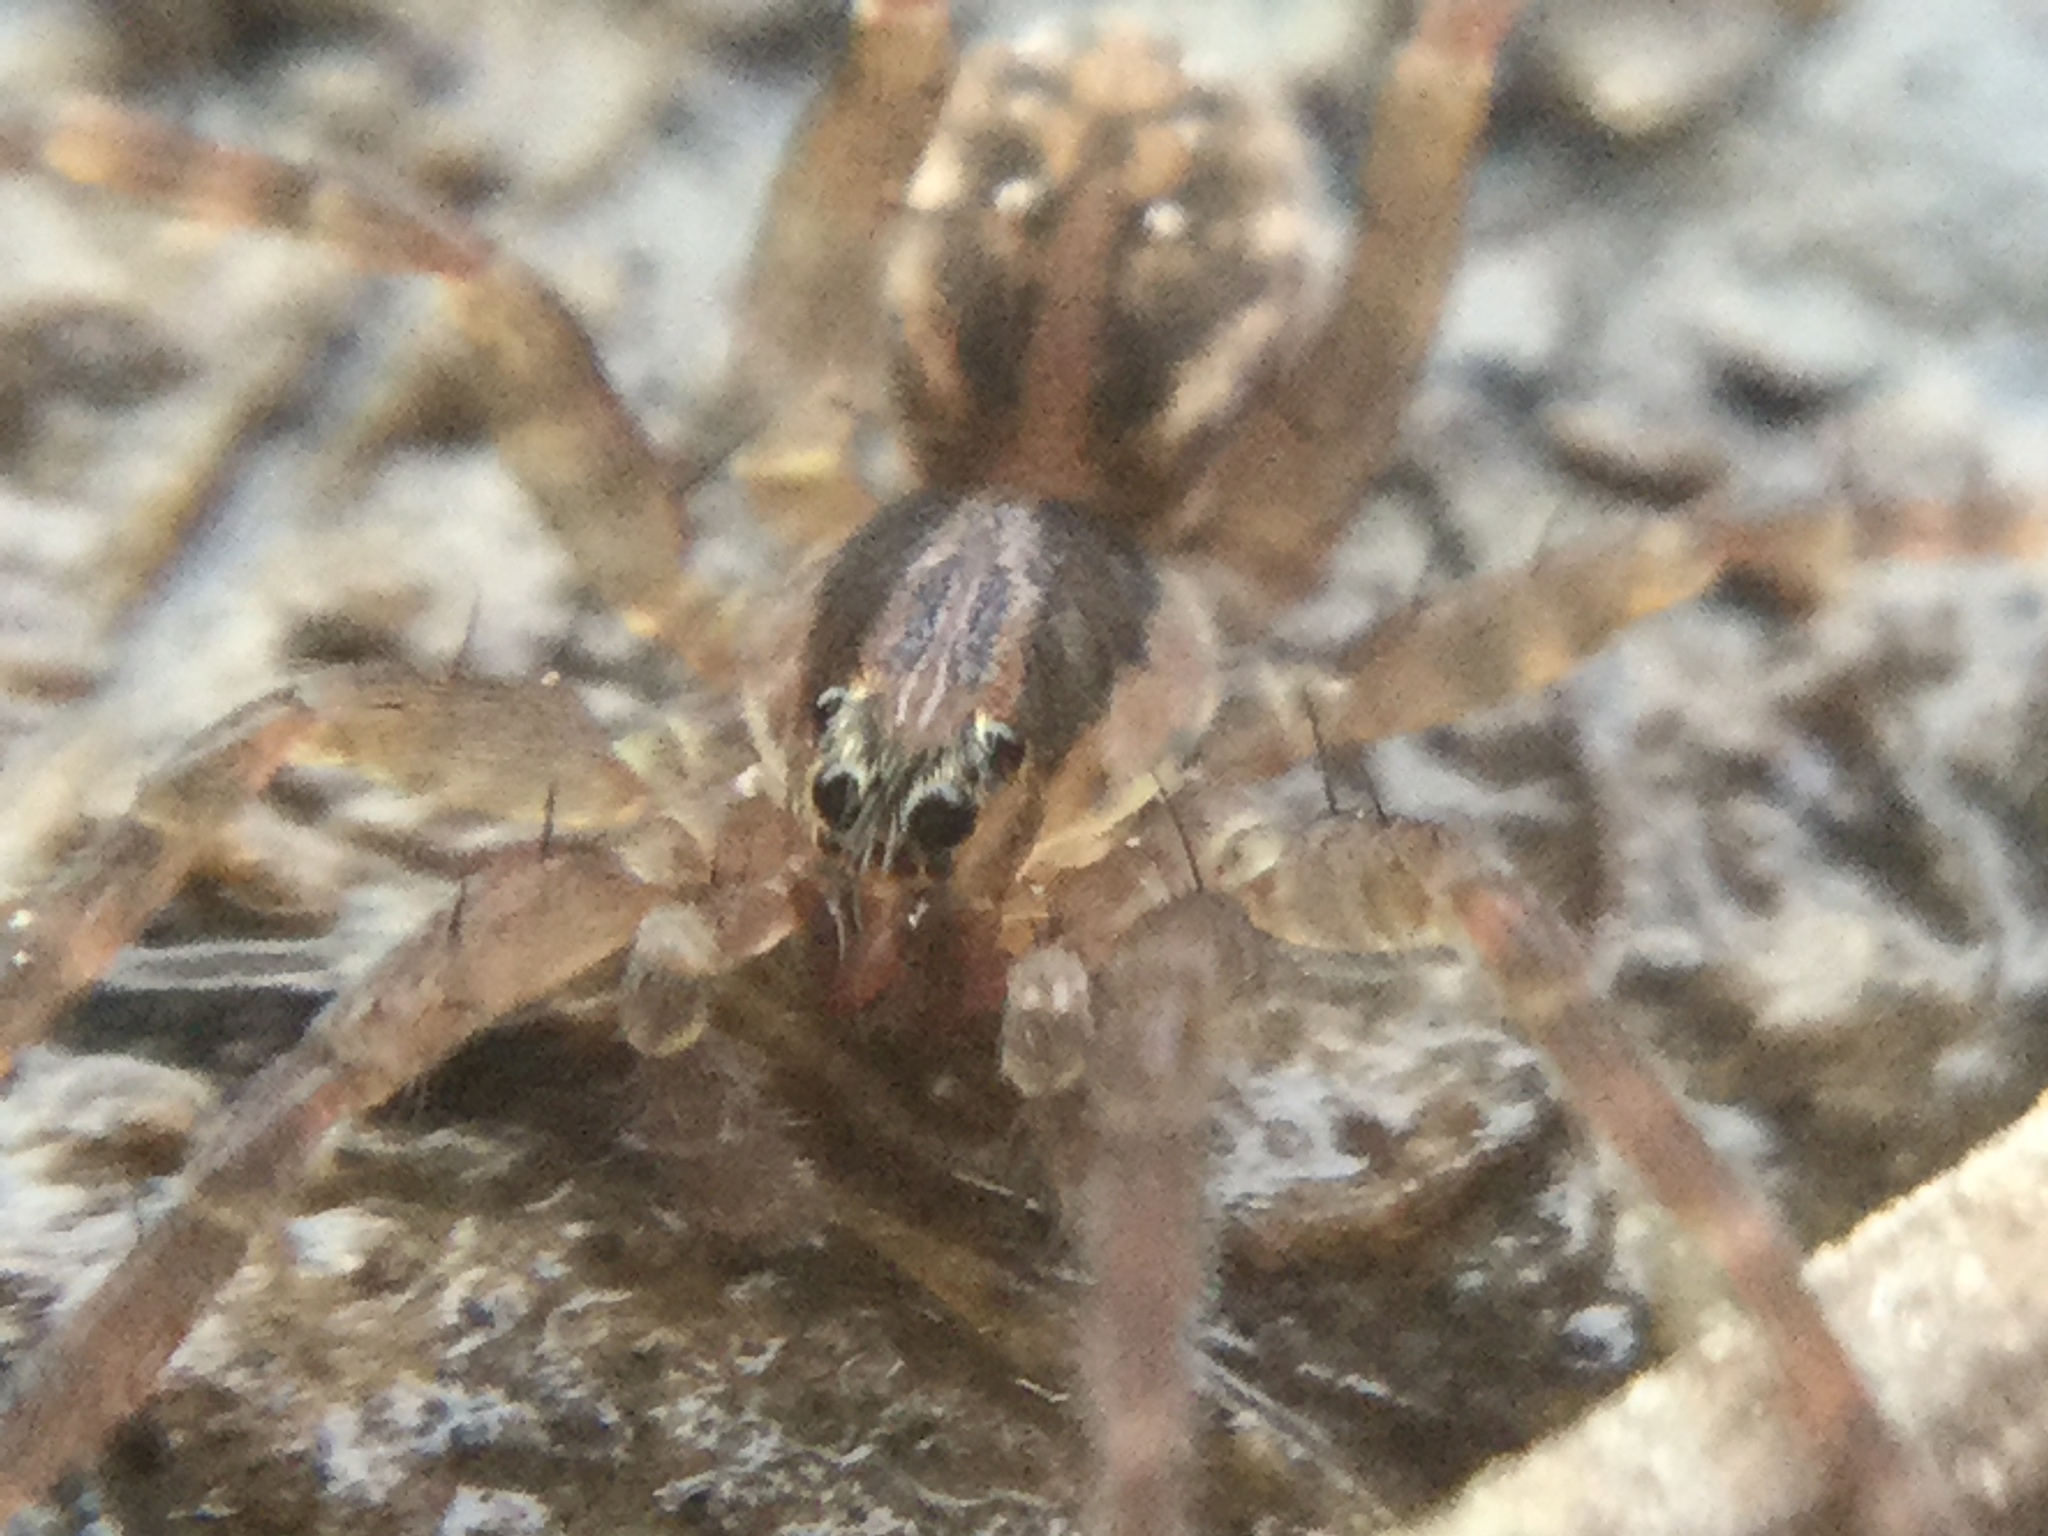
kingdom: Animalia
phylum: Arthropoda
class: Arachnida
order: Araneae
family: Lycosidae
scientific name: Lycosidae
